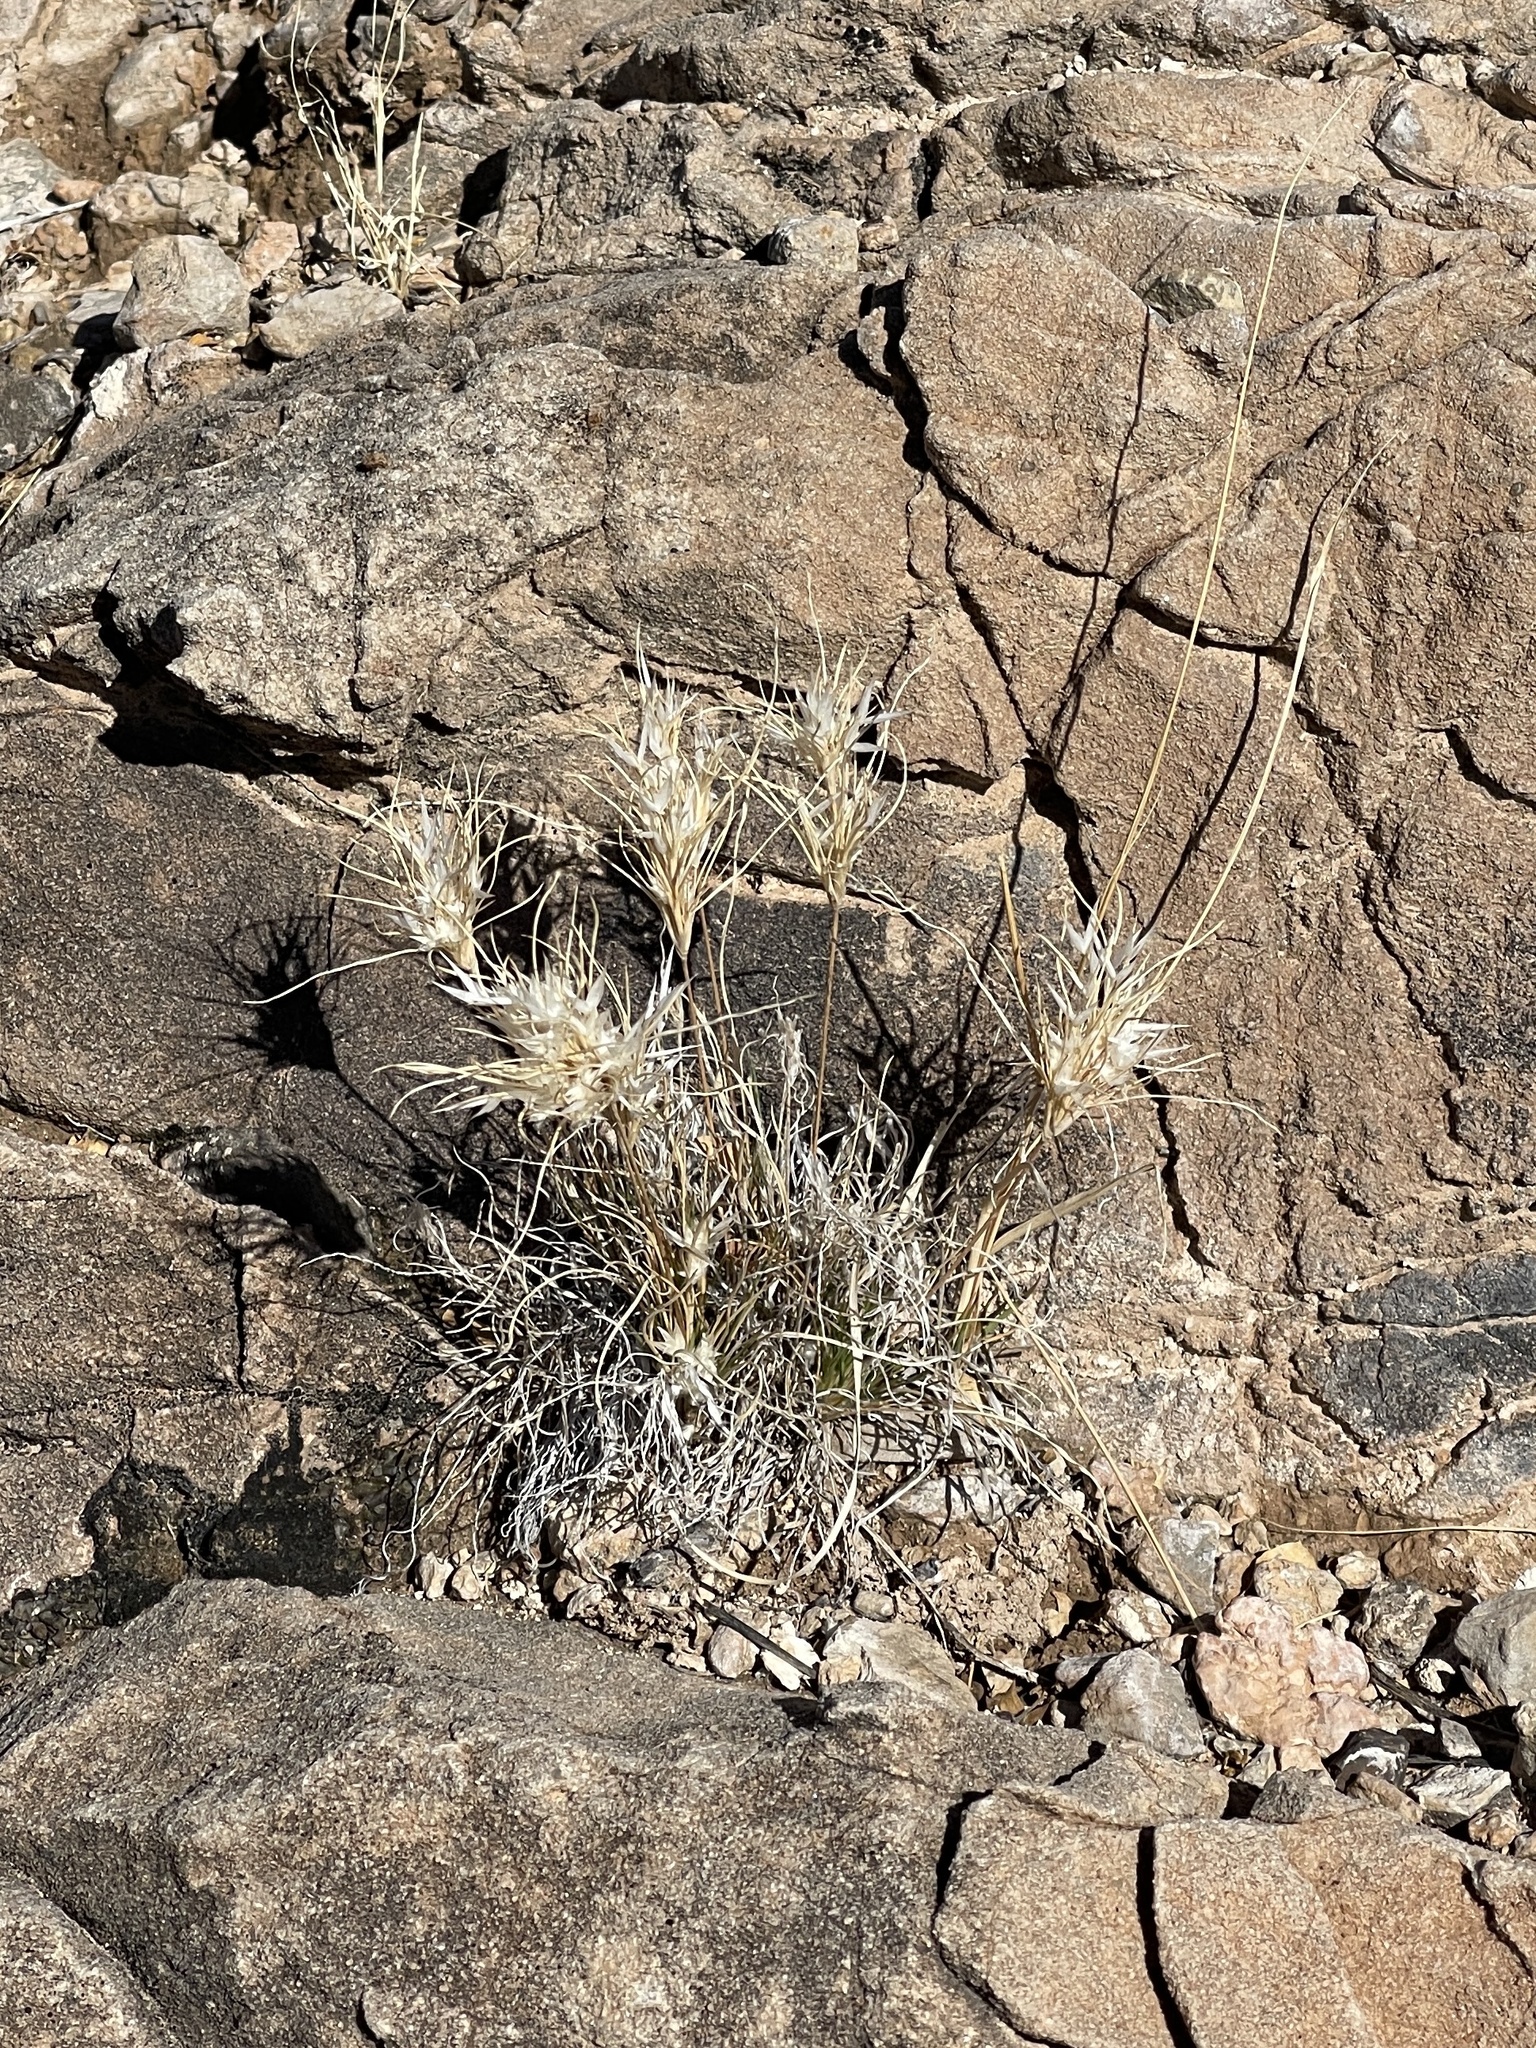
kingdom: Plantae
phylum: Tracheophyta
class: Liliopsida
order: Poales
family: Poaceae
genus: Dasyochloa
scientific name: Dasyochloa pulchella
